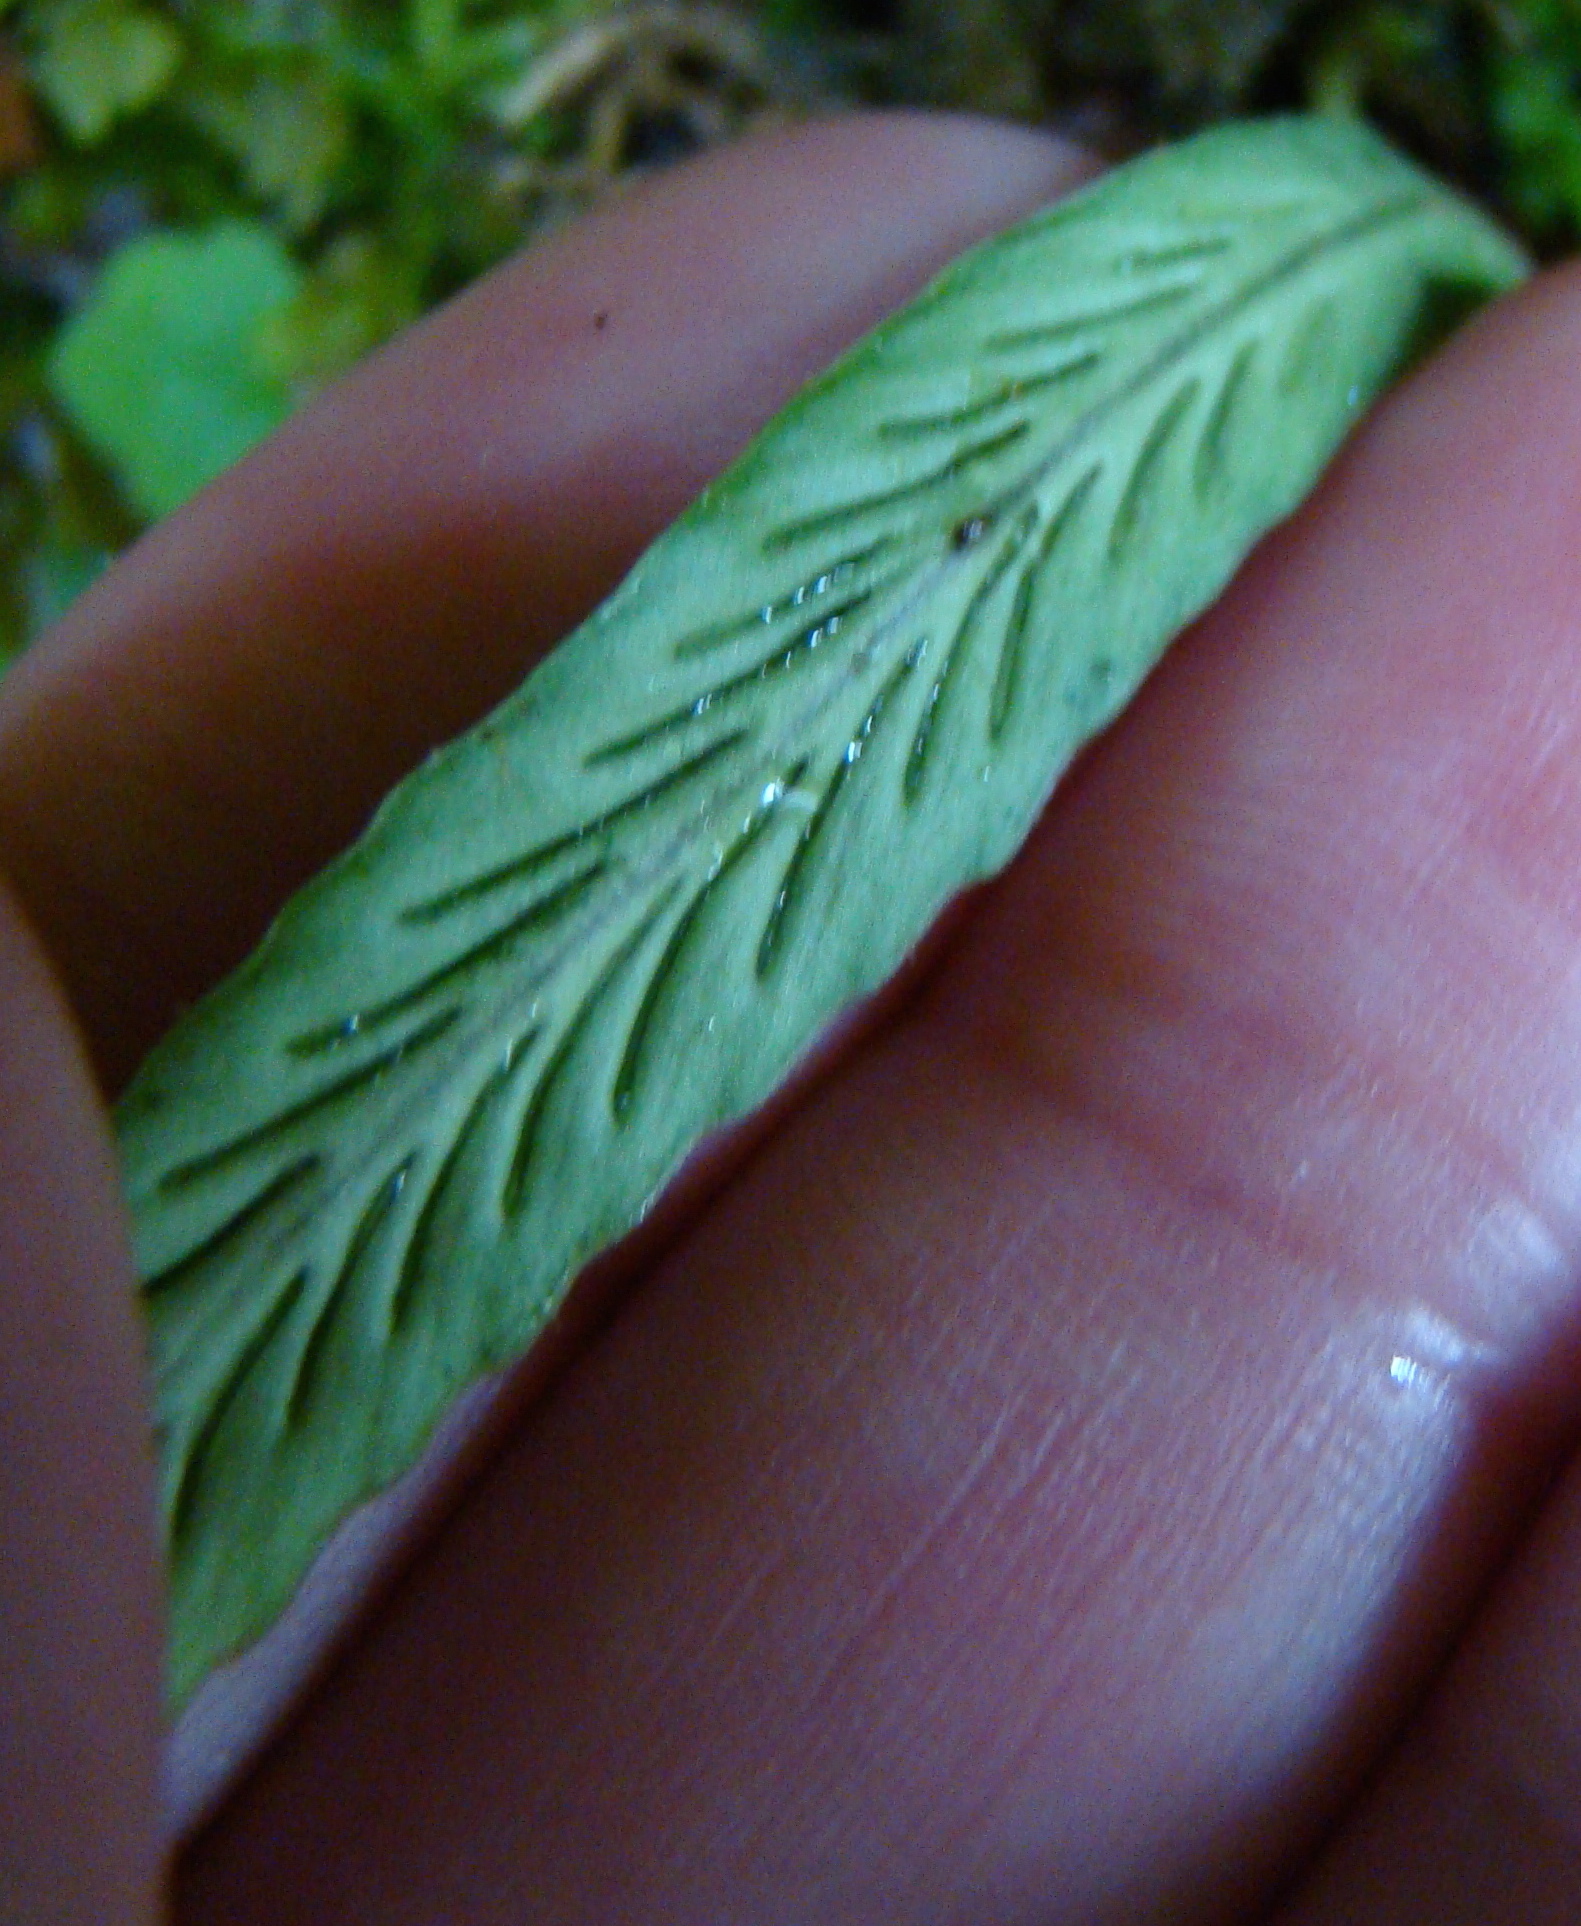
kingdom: Plantae
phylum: Tracheophyta
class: Polypodiopsida
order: Polypodiales
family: Polypodiaceae
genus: Notogrammitis
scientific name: Notogrammitis billardierei
